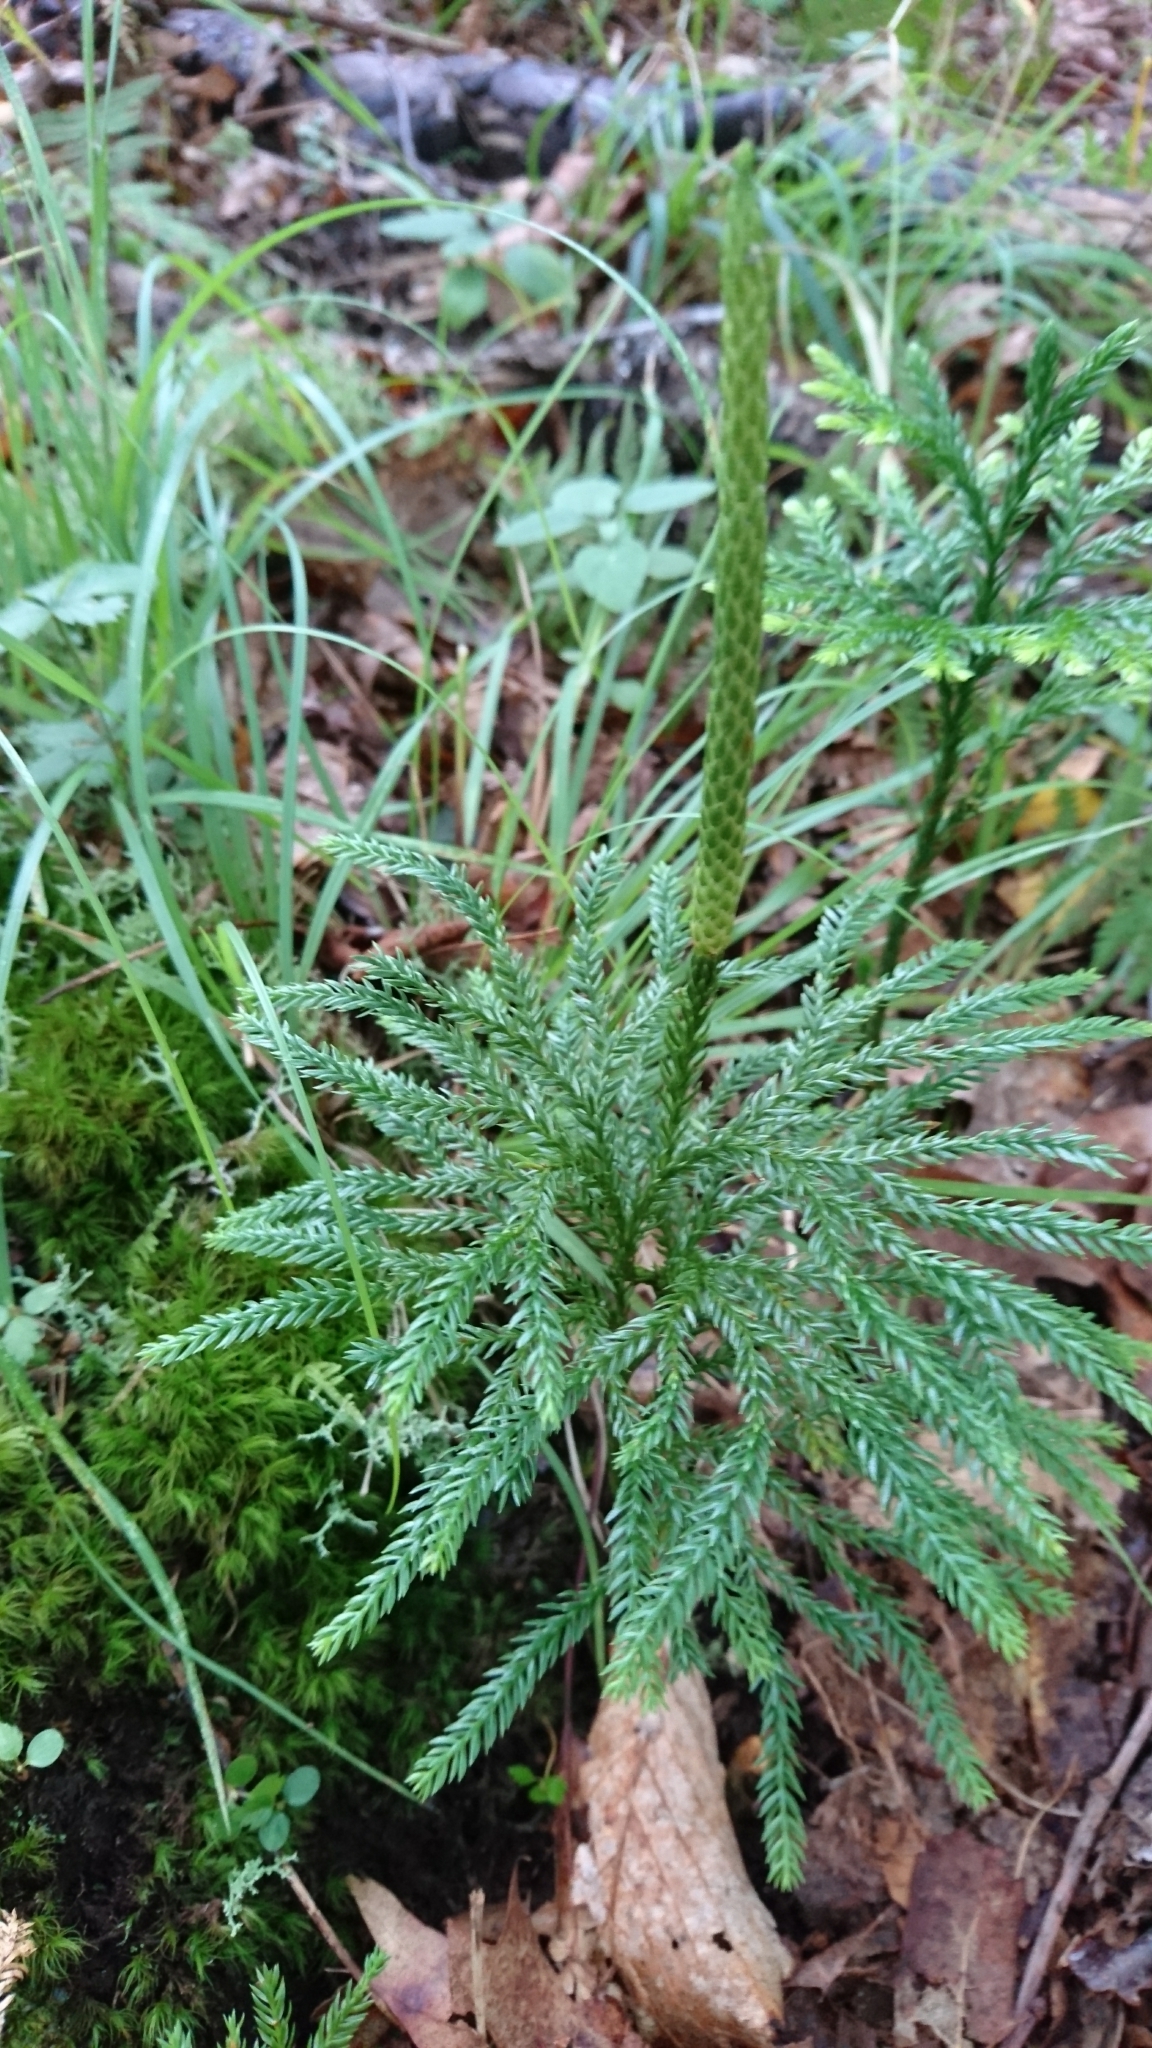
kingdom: Plantae
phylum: Tracheophyta
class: Lycopodiopsida
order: Lycopodiales
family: Lycopodiaceae
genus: Dendrolycopodium
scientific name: Dendrolycopodium obscurum
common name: Common ground-pine
